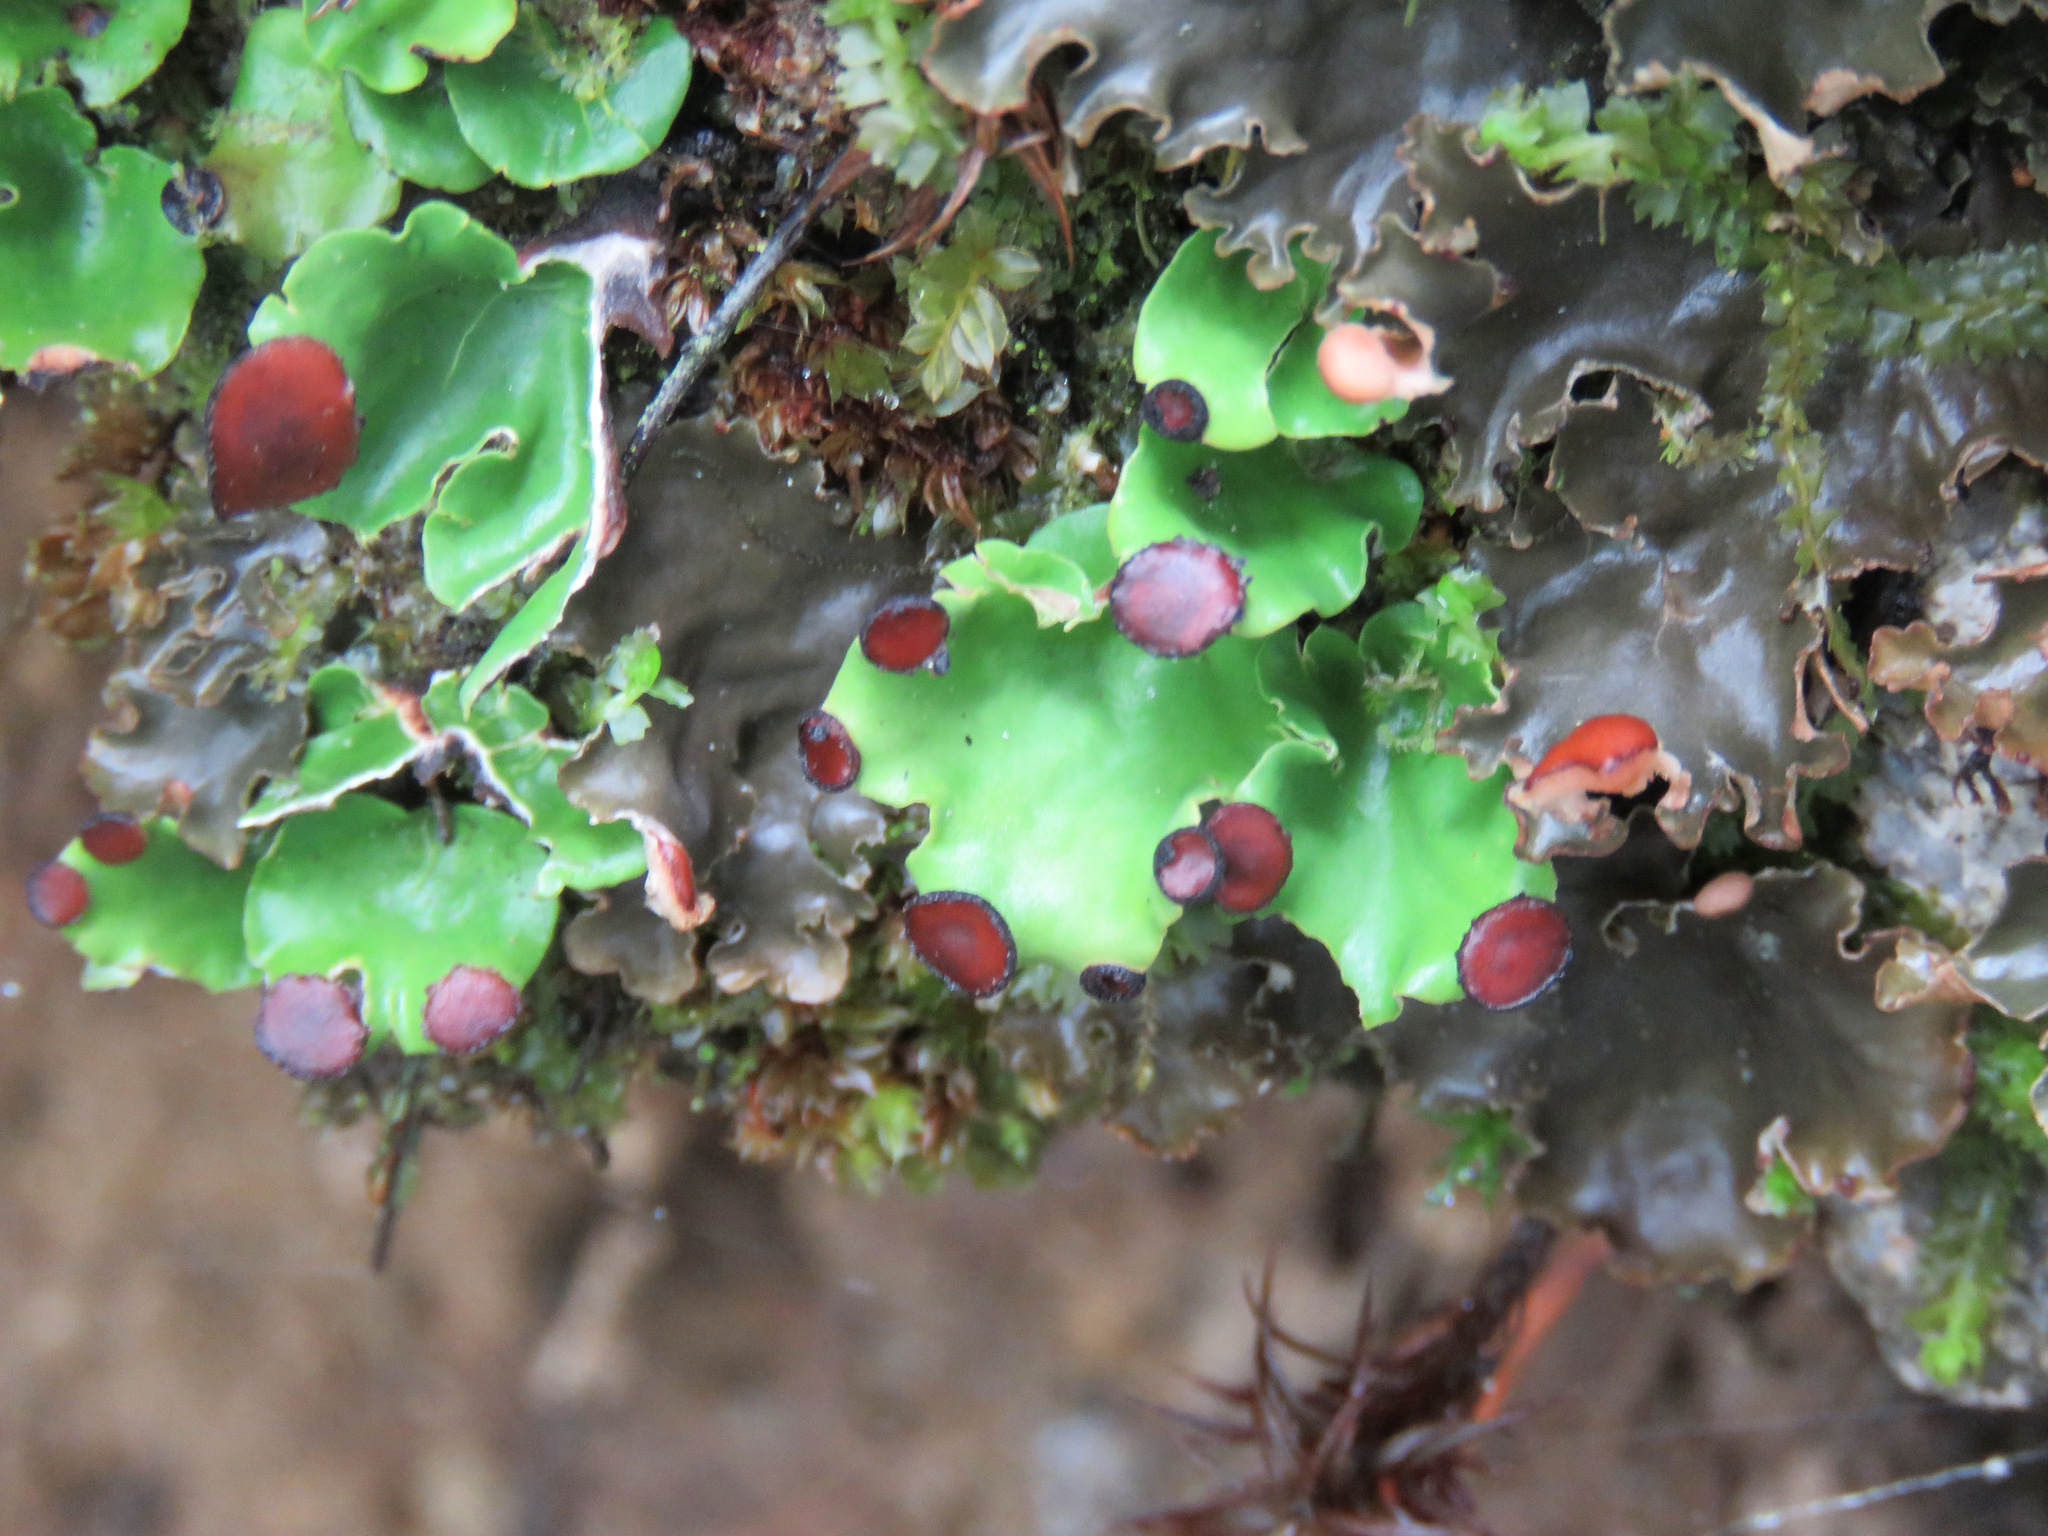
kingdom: Fungi
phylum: Ascomycota
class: Lecanoromycetes
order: Peltigerales
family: Peltigeraceae
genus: Peltigera
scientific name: Peltigera venosa
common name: Pixie gowns lichen
